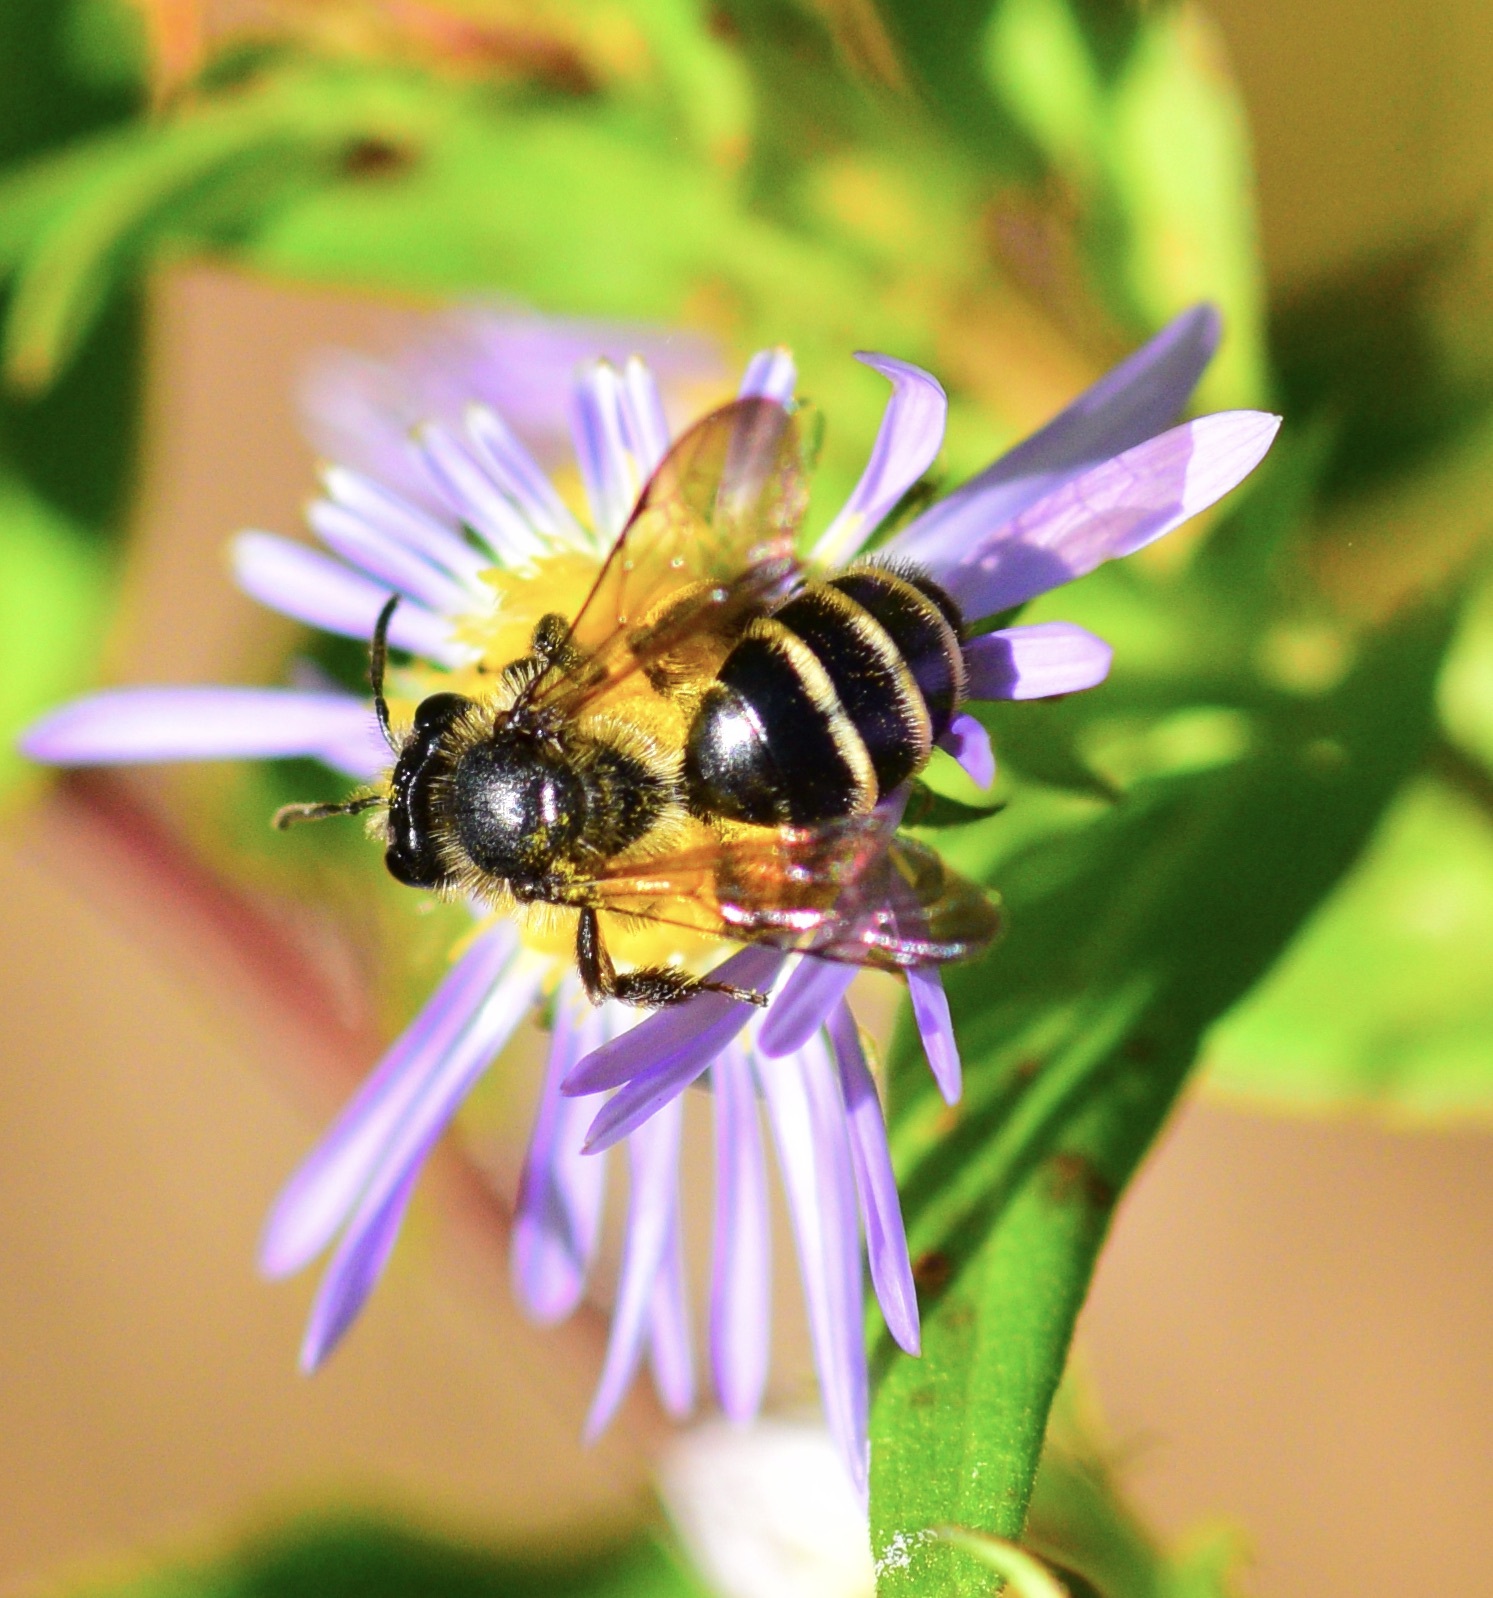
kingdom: Animalia
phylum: Arthropoda
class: Insecta
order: Hymenoptera
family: Andrenidae
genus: Andrena
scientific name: Andrena robervalensis
